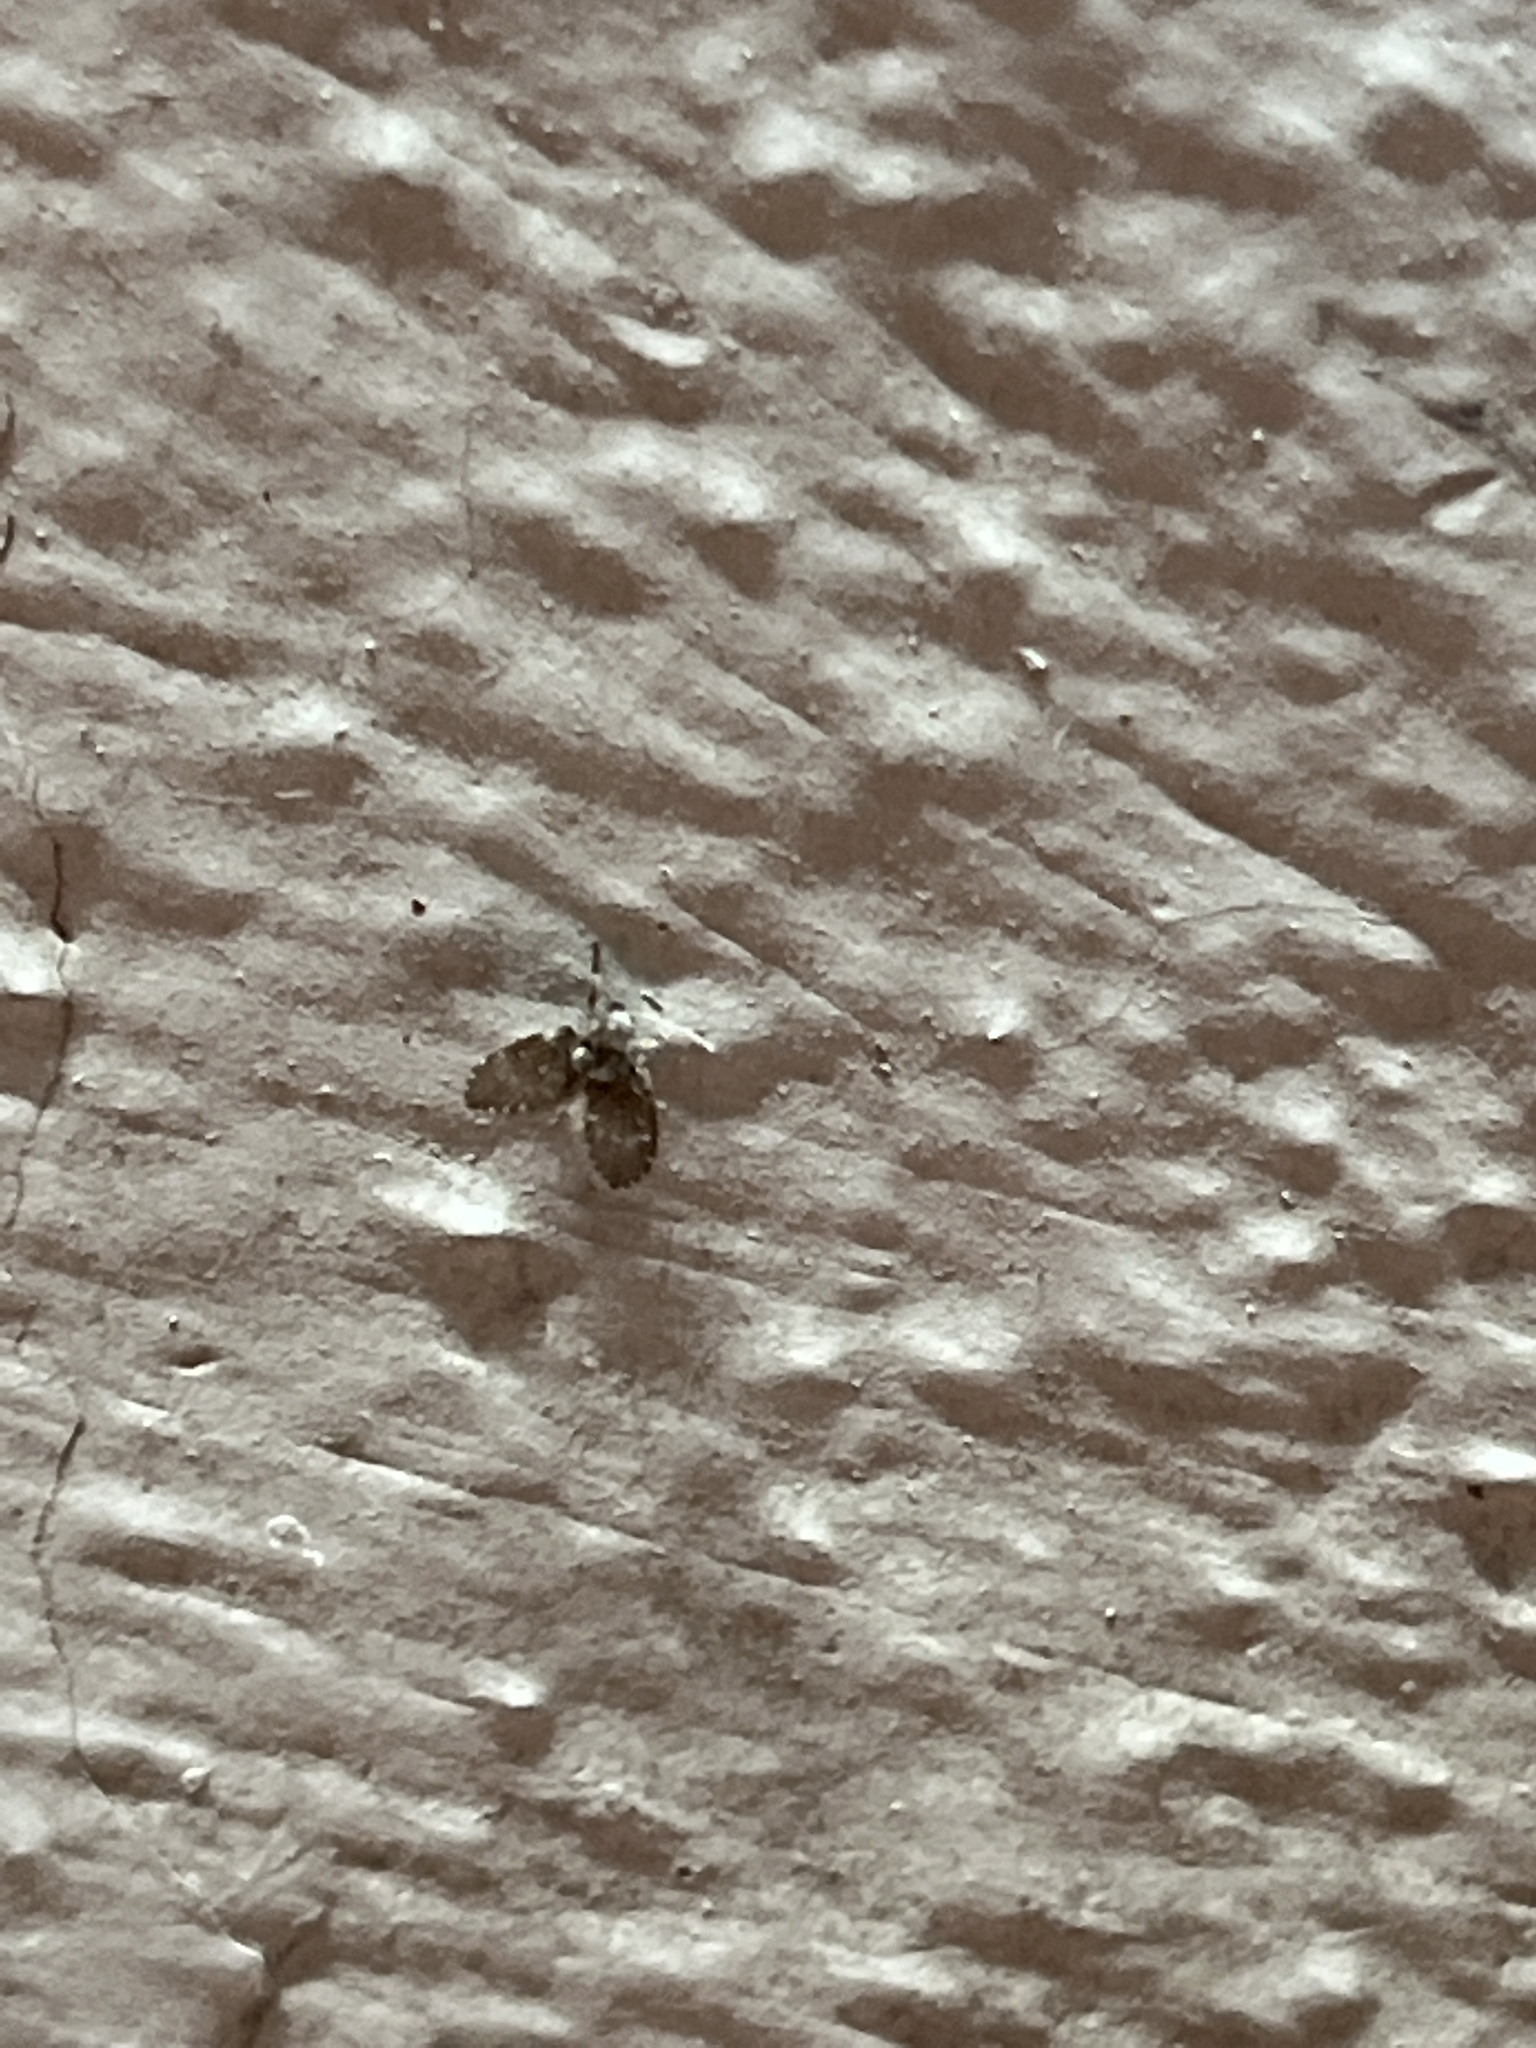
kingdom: Animalia
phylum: Arthropoda
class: Insecta
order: Diptera
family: Psychodidae
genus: Clogmia
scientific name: Clogmia albipunctatus
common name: White-spotted moth fly
